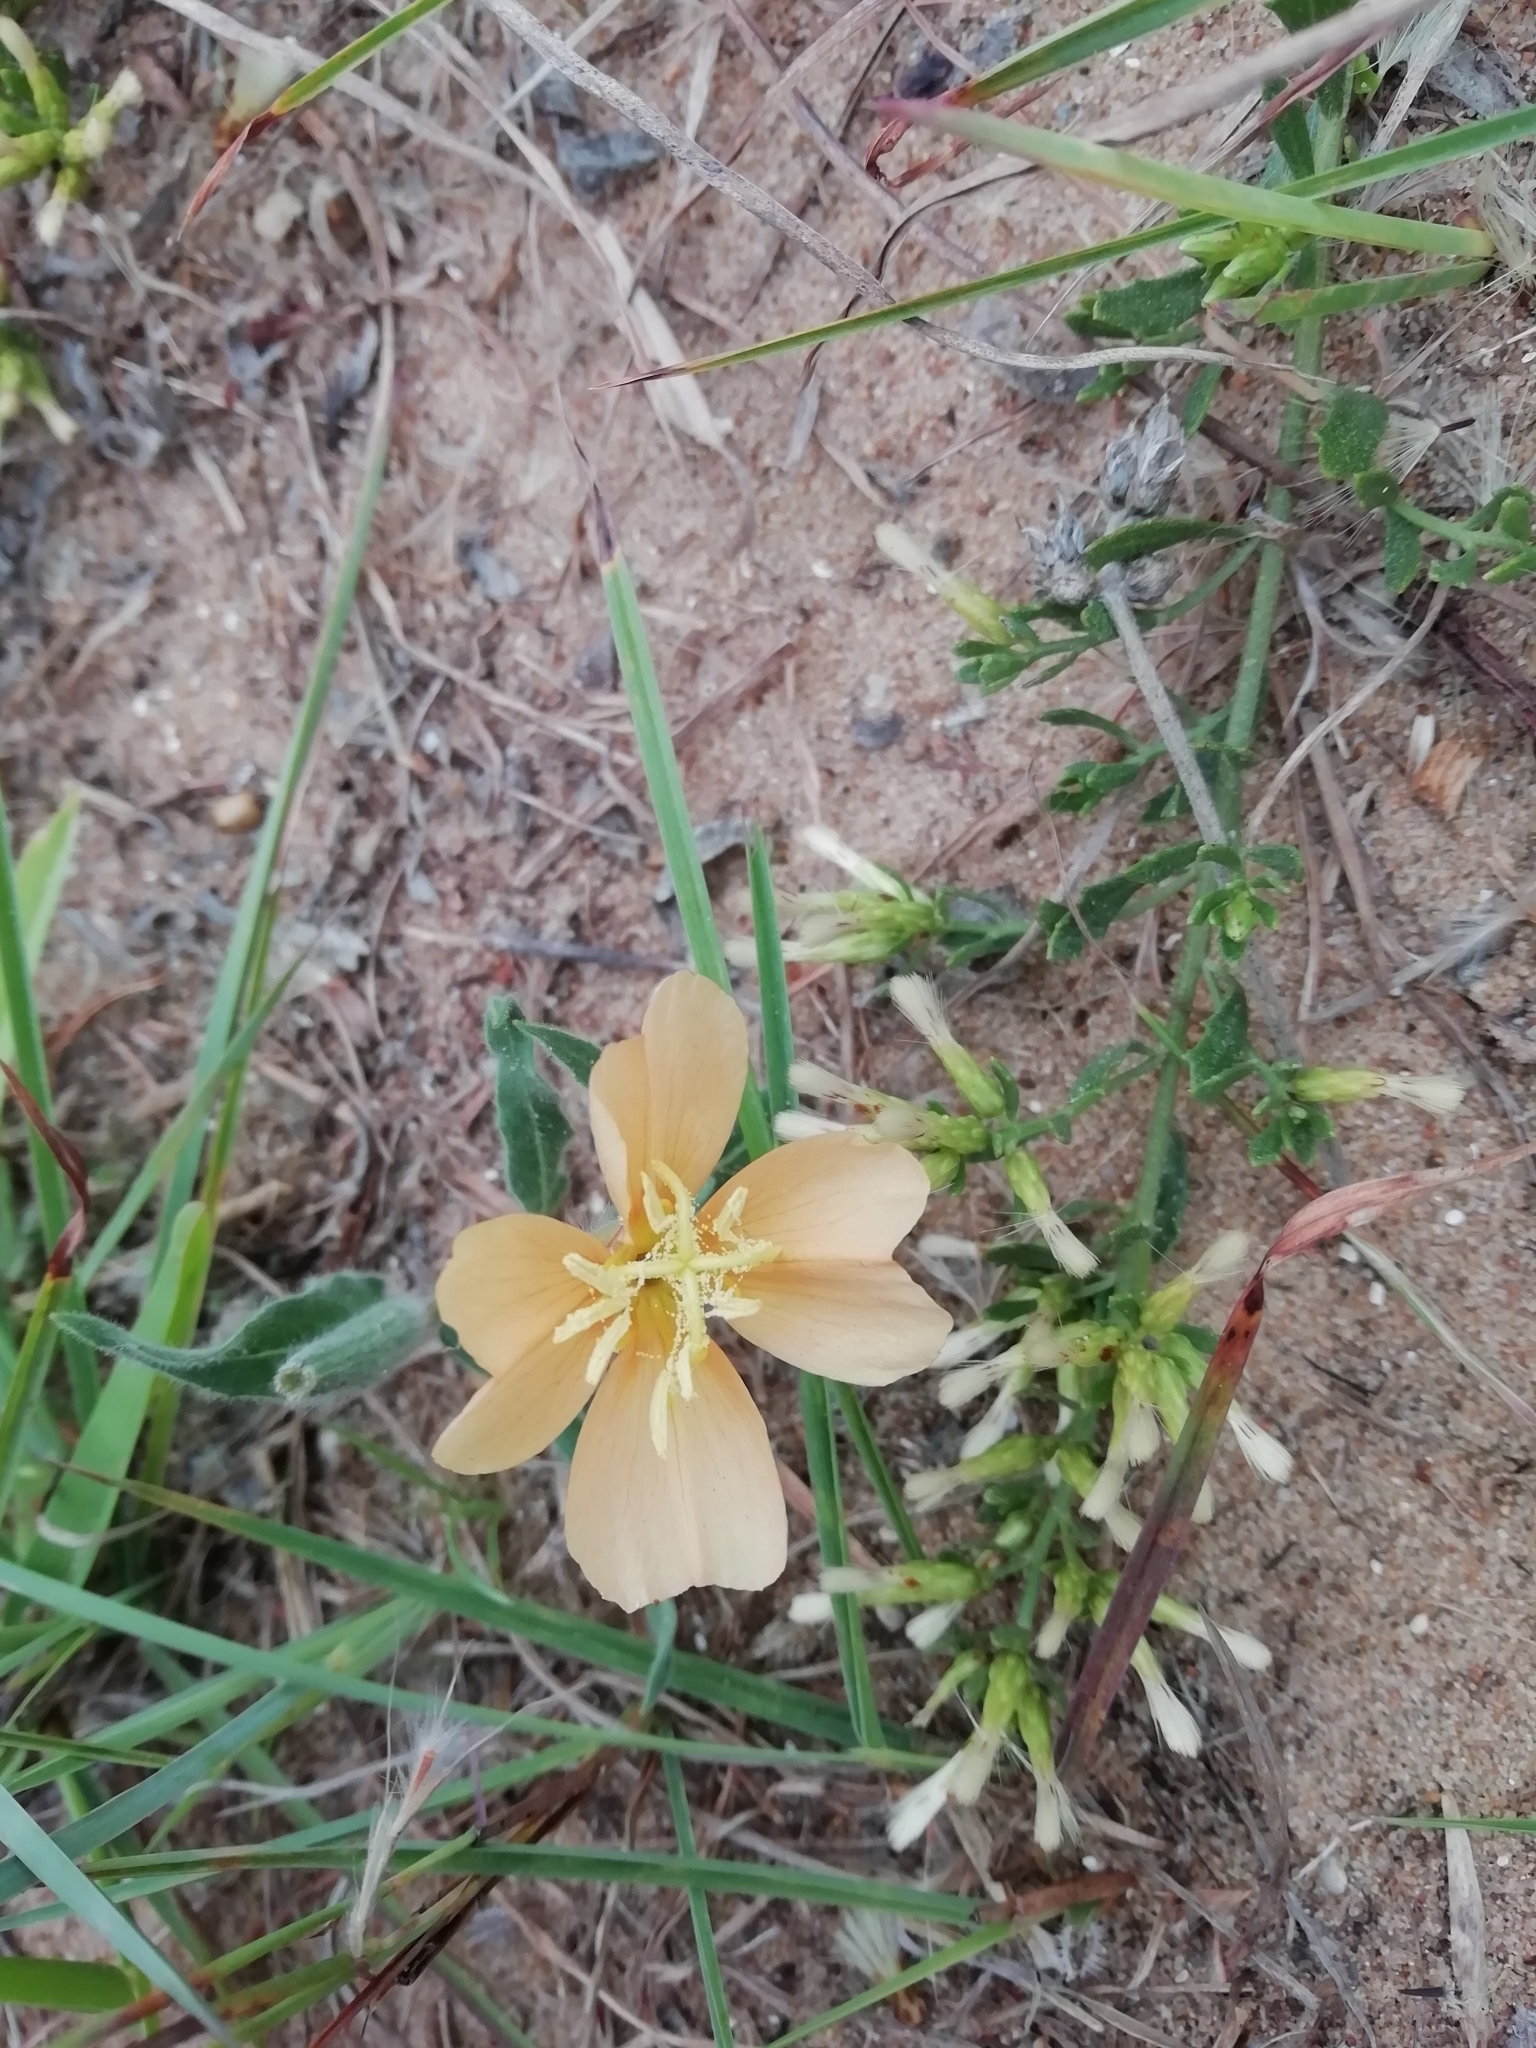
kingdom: Plantae
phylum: Tracheophyta
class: Magnoliopsida
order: Myrtales
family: Onagraceae
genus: Oenothera
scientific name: Oenothera mollissima
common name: Argentine evening primrose
